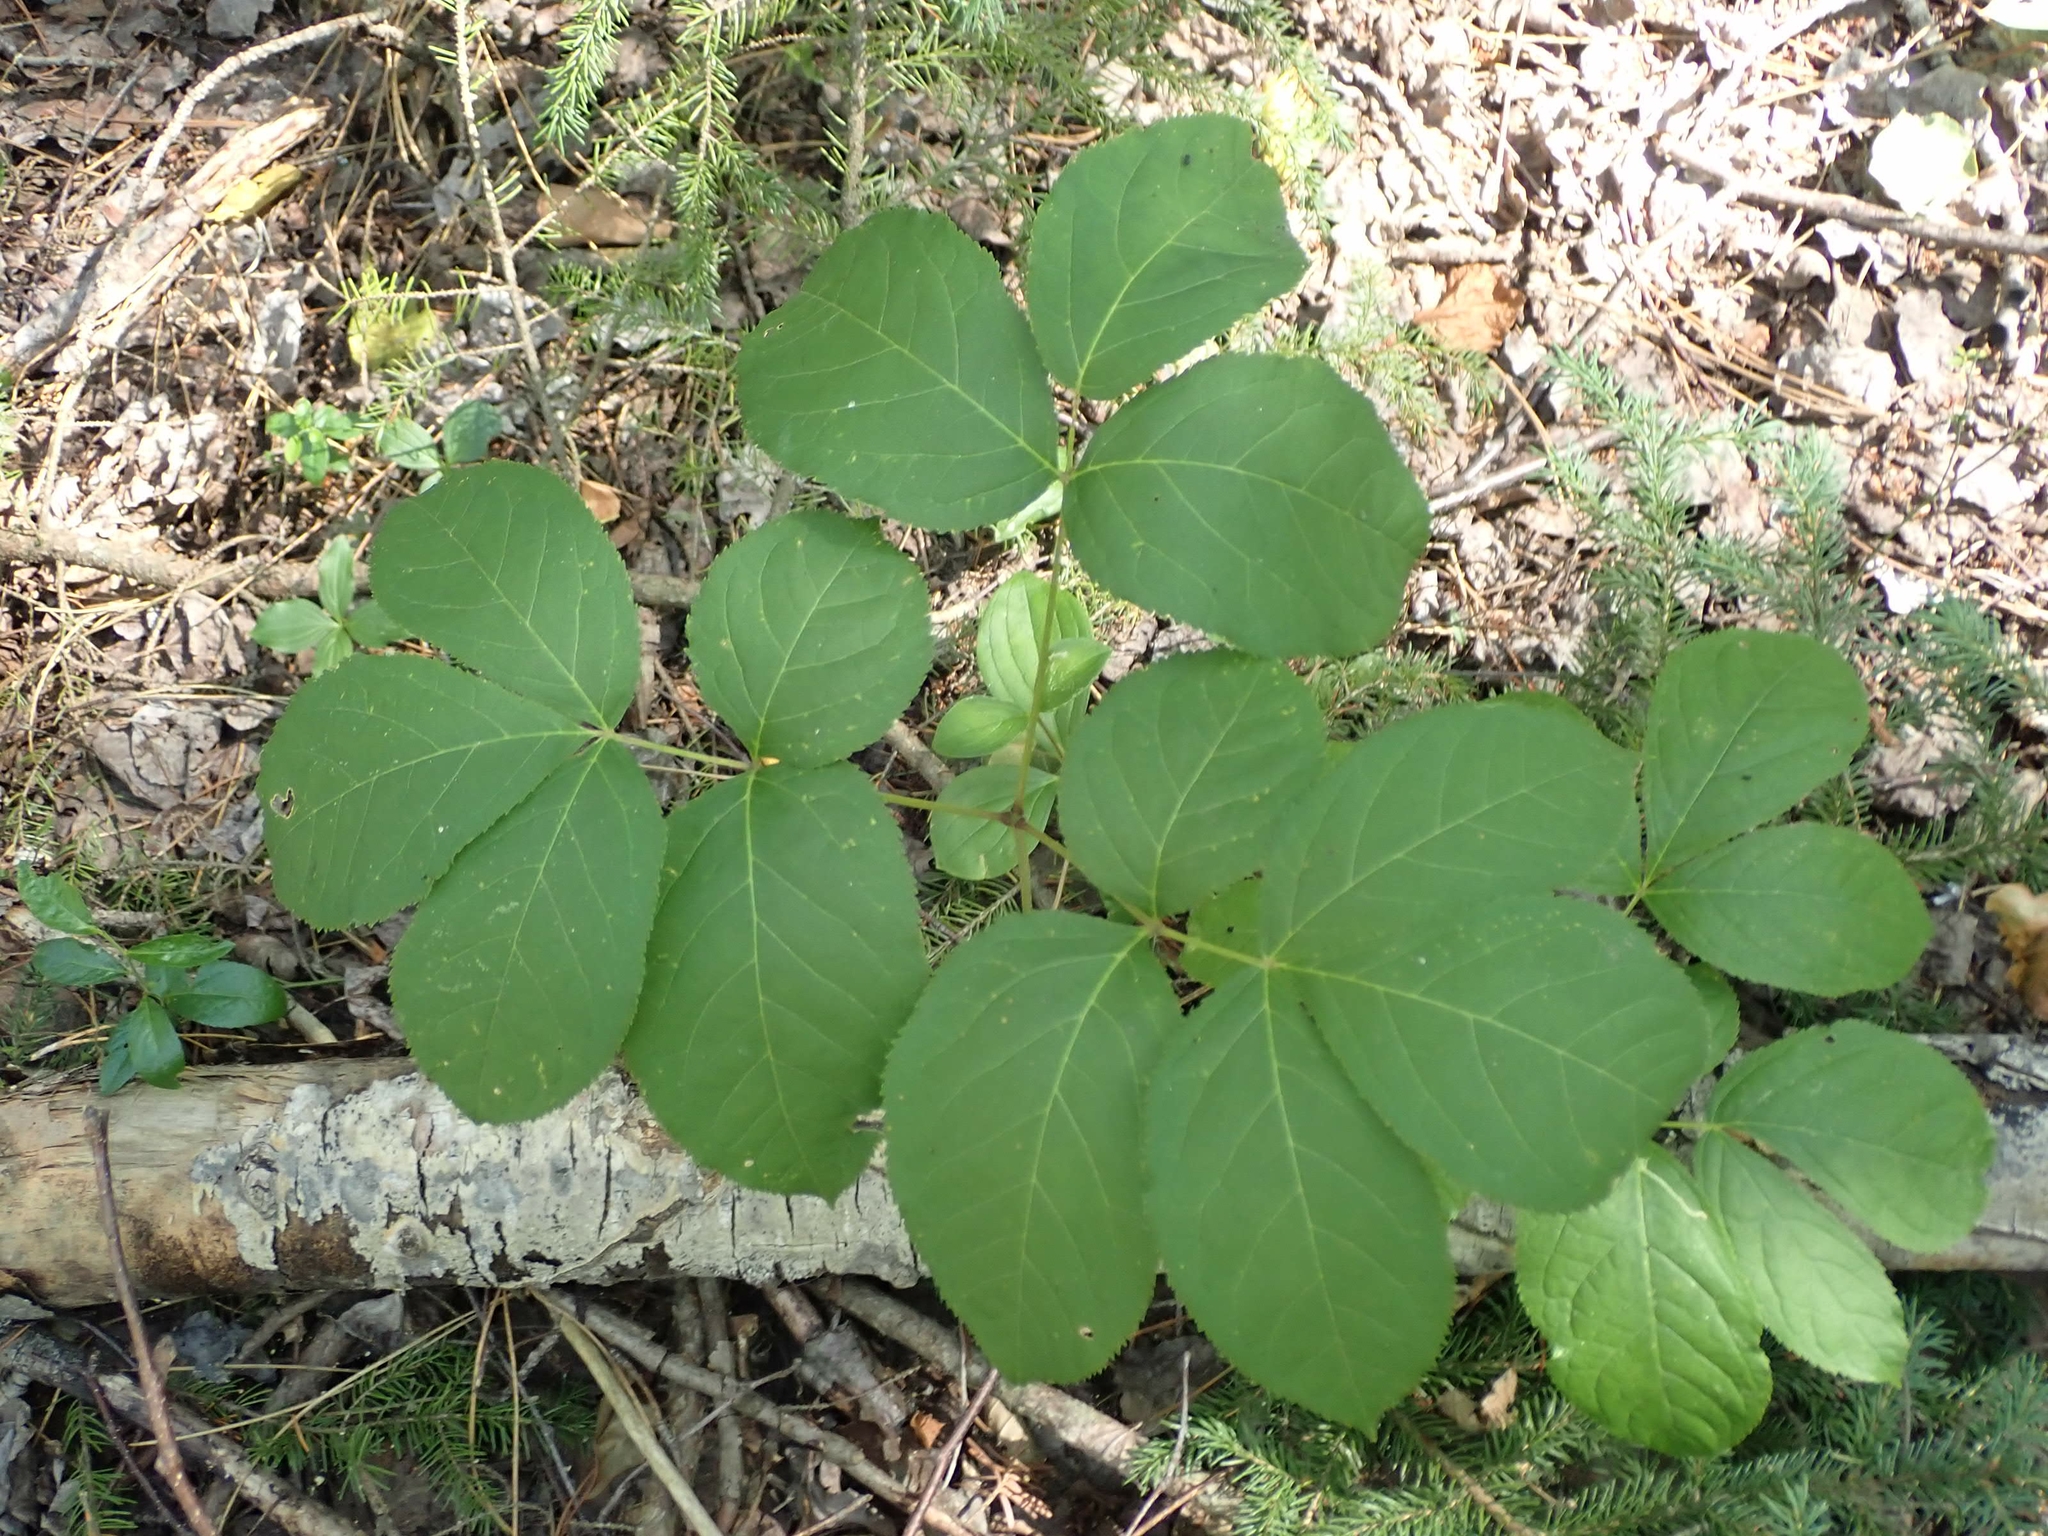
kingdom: Plantae
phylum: Tracheophyta
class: Magnoliopsida
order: Apiales
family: Araliaceae
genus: Aralia
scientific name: Aralia nudicaulis
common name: Wild sarsaparilla
